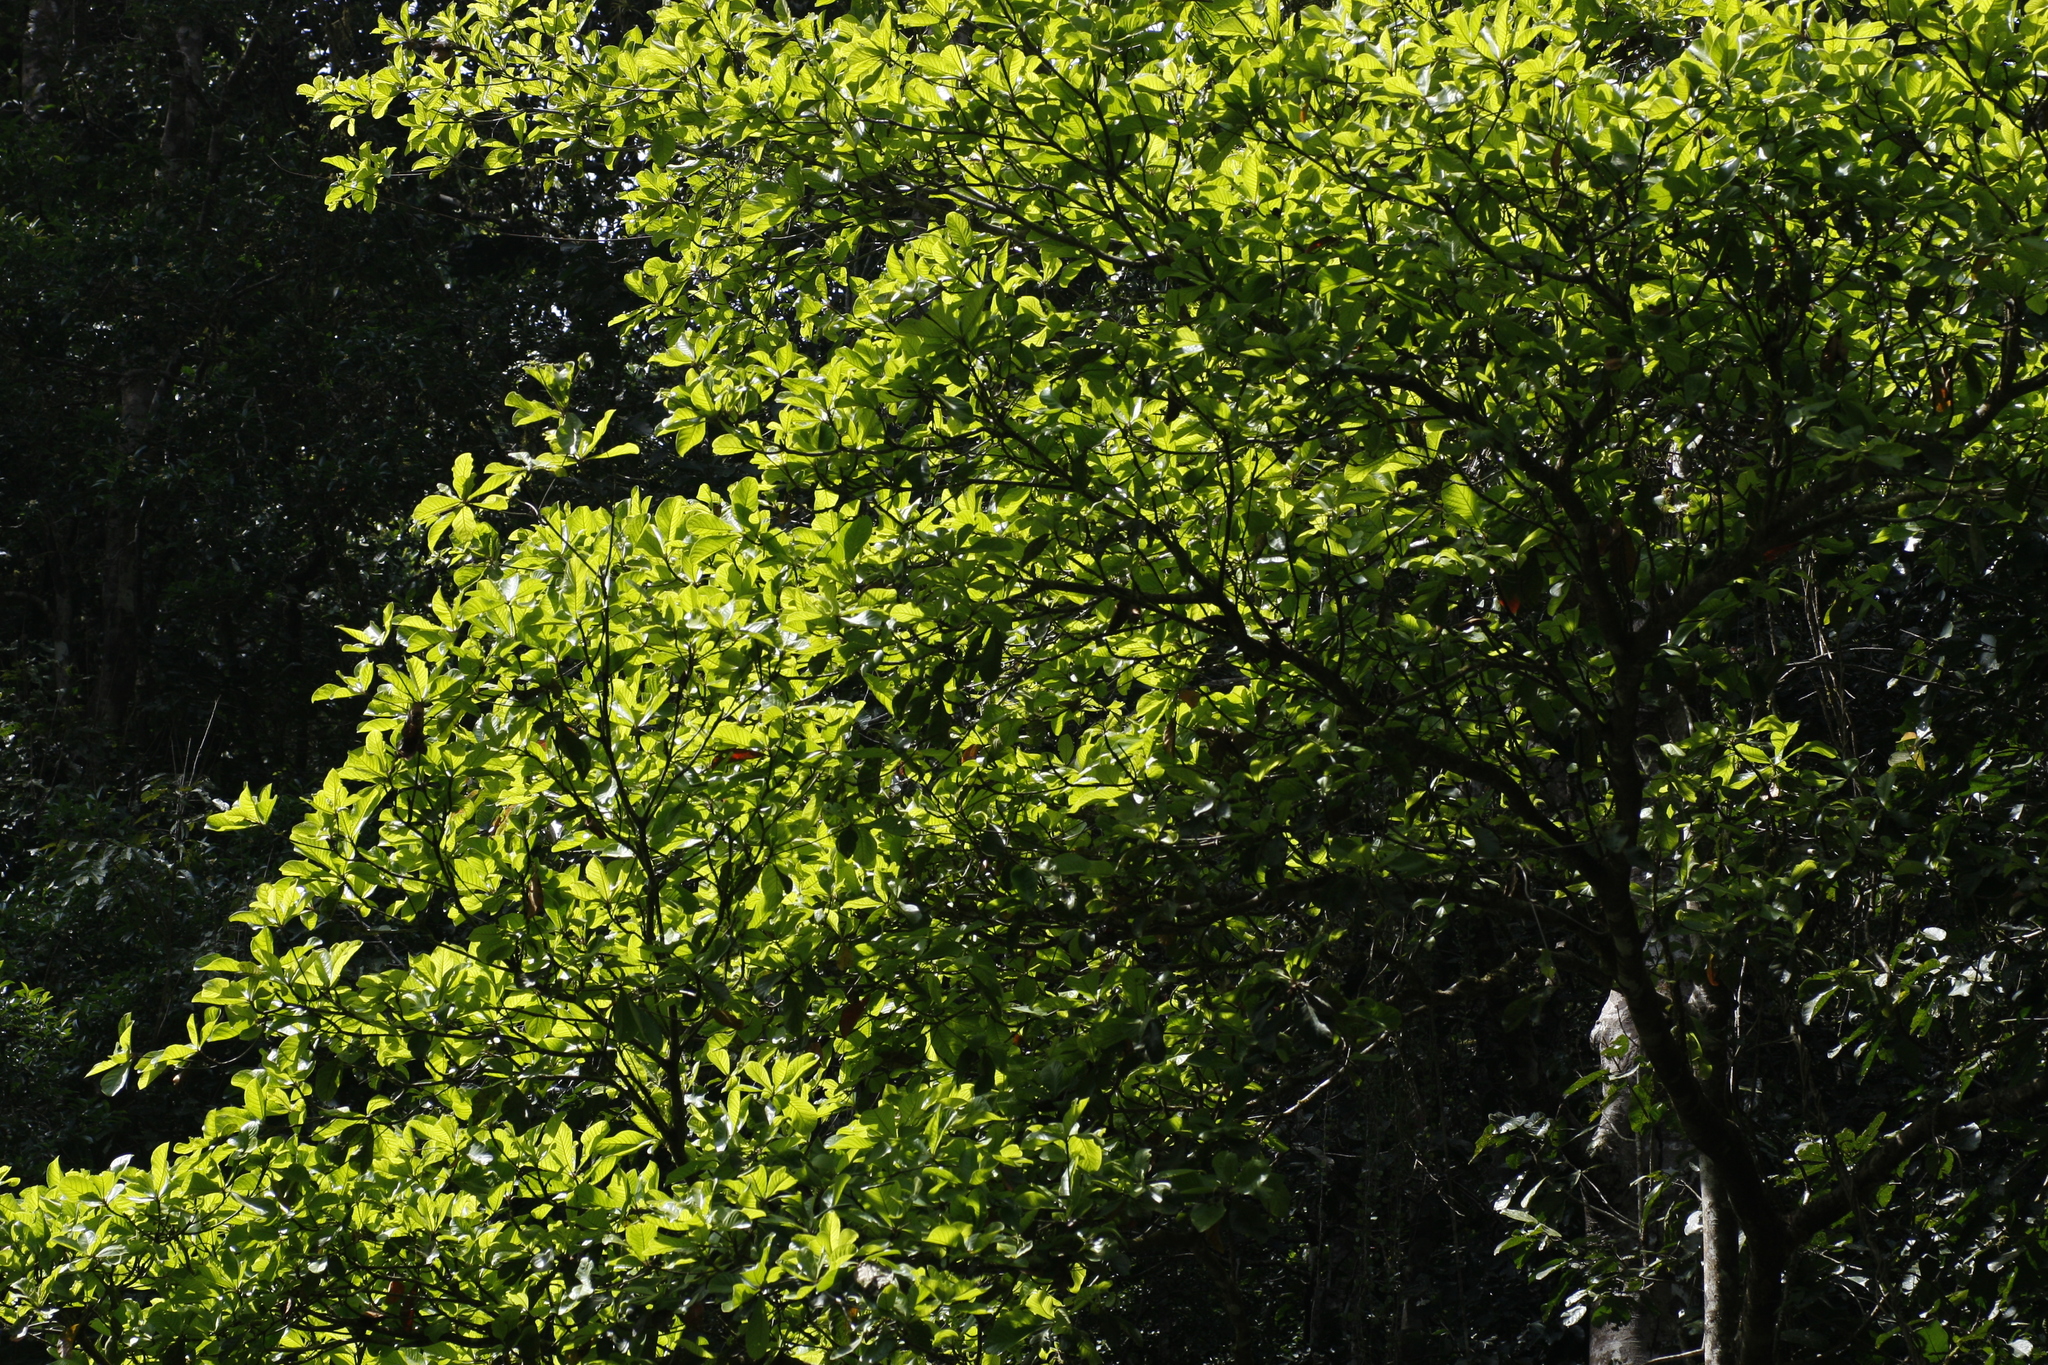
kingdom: Plantae
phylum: Tracheophyta
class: Magnoliopsida
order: Oxalidales
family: Elaeocarpaceae
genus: Elaeocarpus
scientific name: Elaeocarpus tuberculatus
